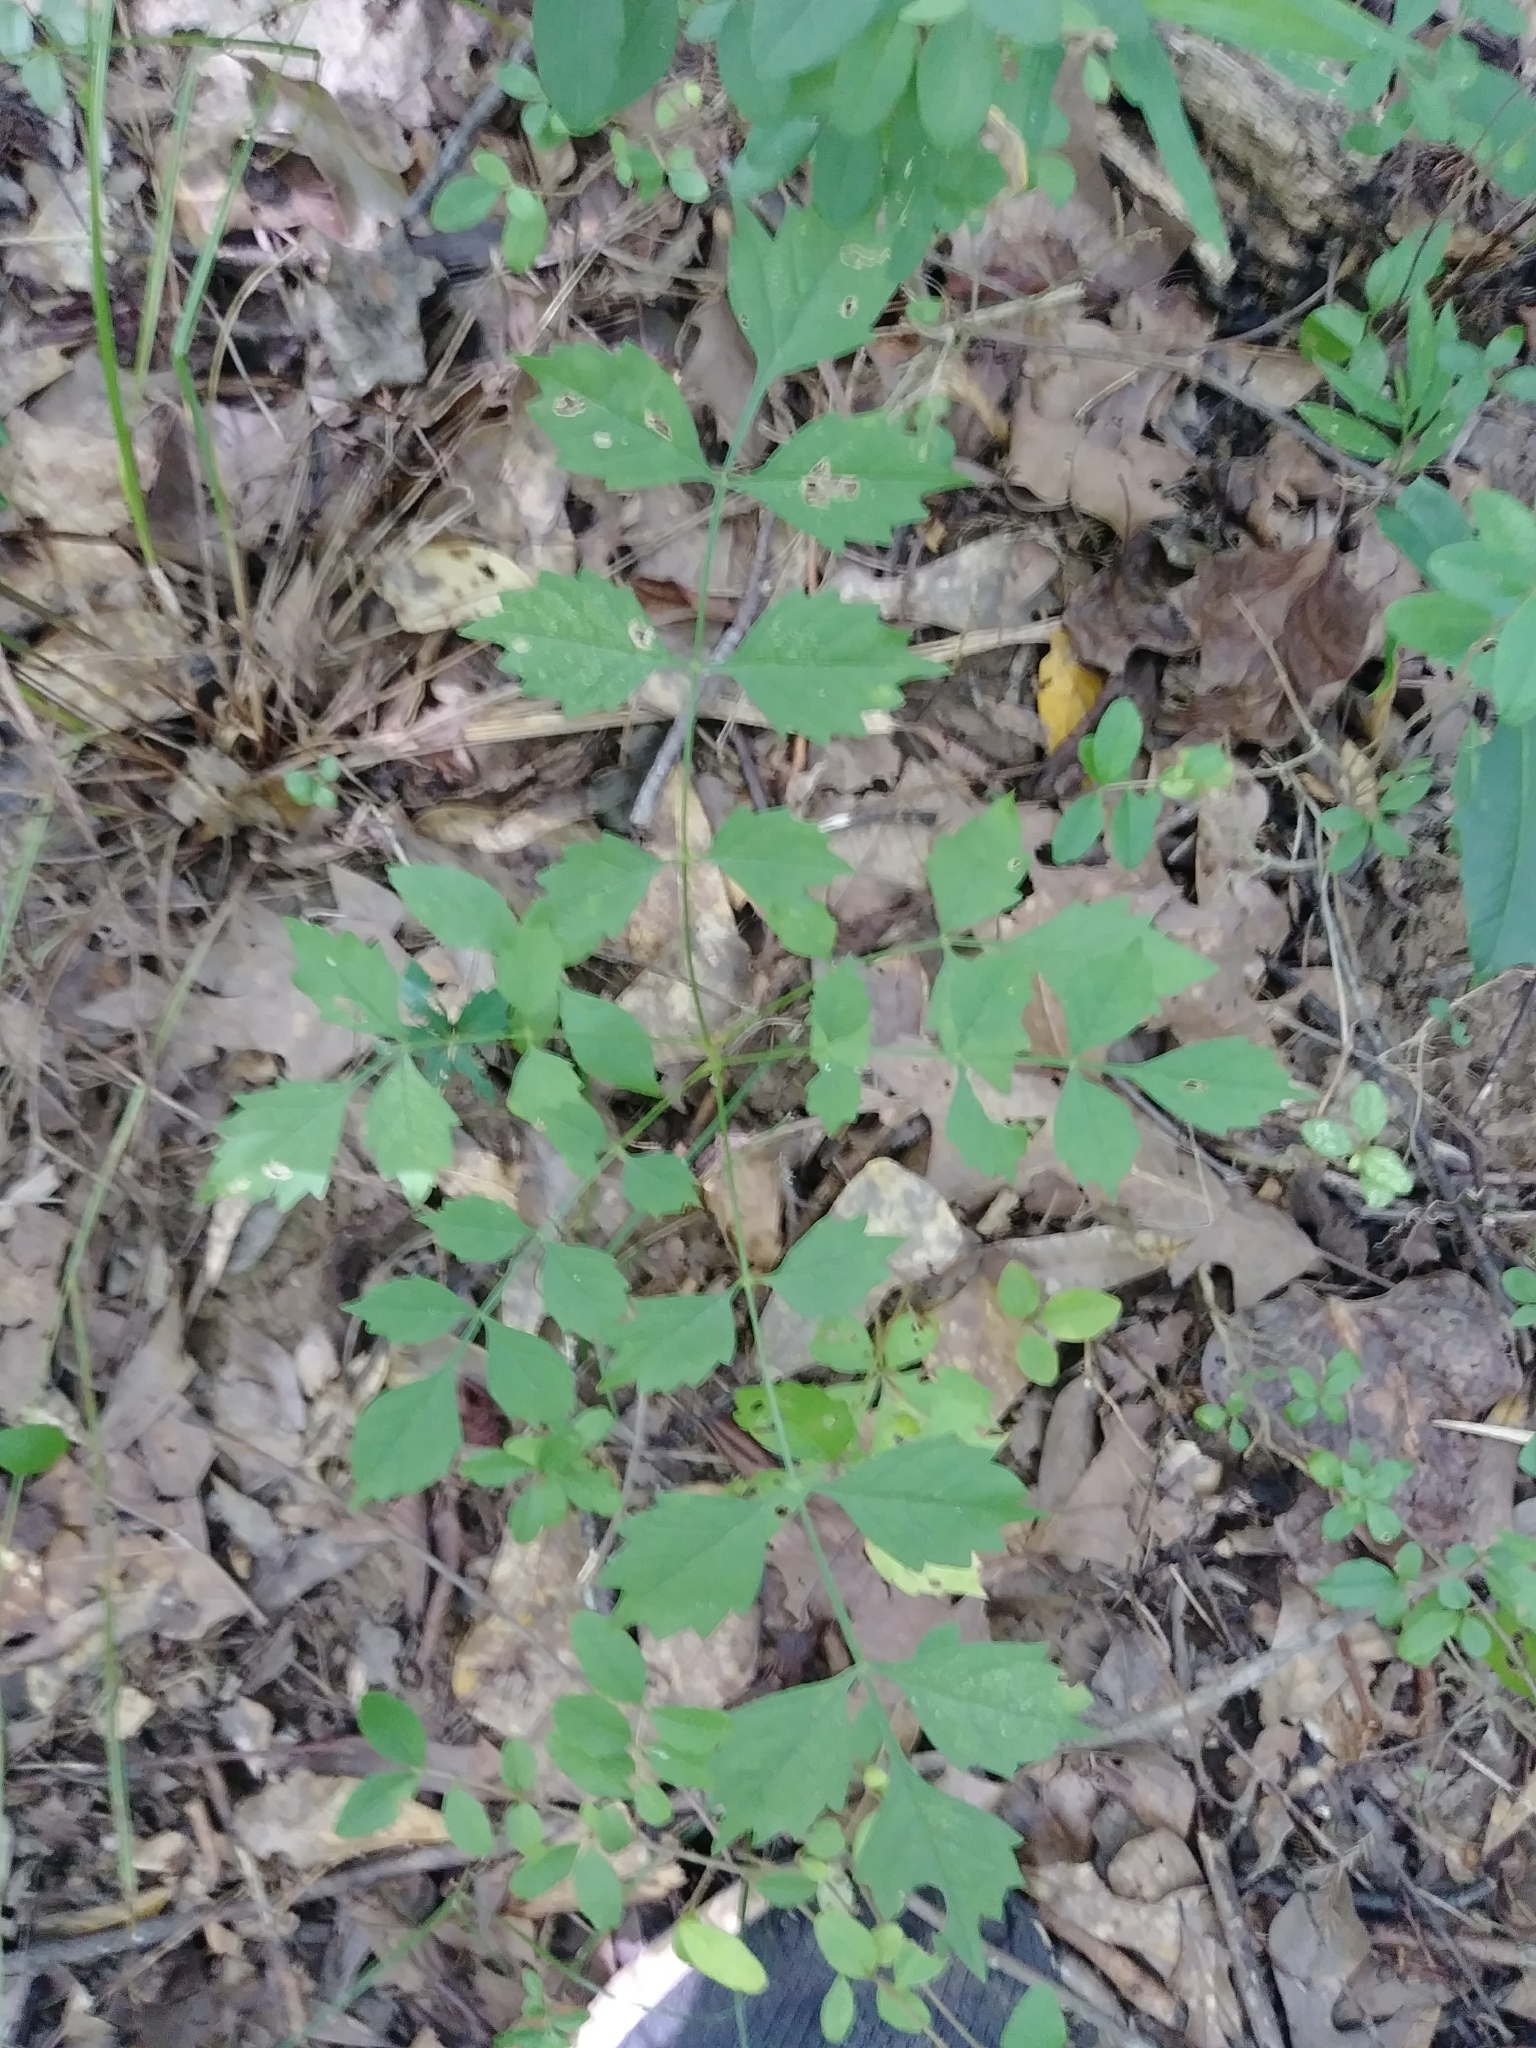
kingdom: Plantae
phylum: Tracheophyta
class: Magnoliopsida
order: Lamiales
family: Bignoniaceae
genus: Campsis
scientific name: Campsis radicans
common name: Trumpet-creeper
